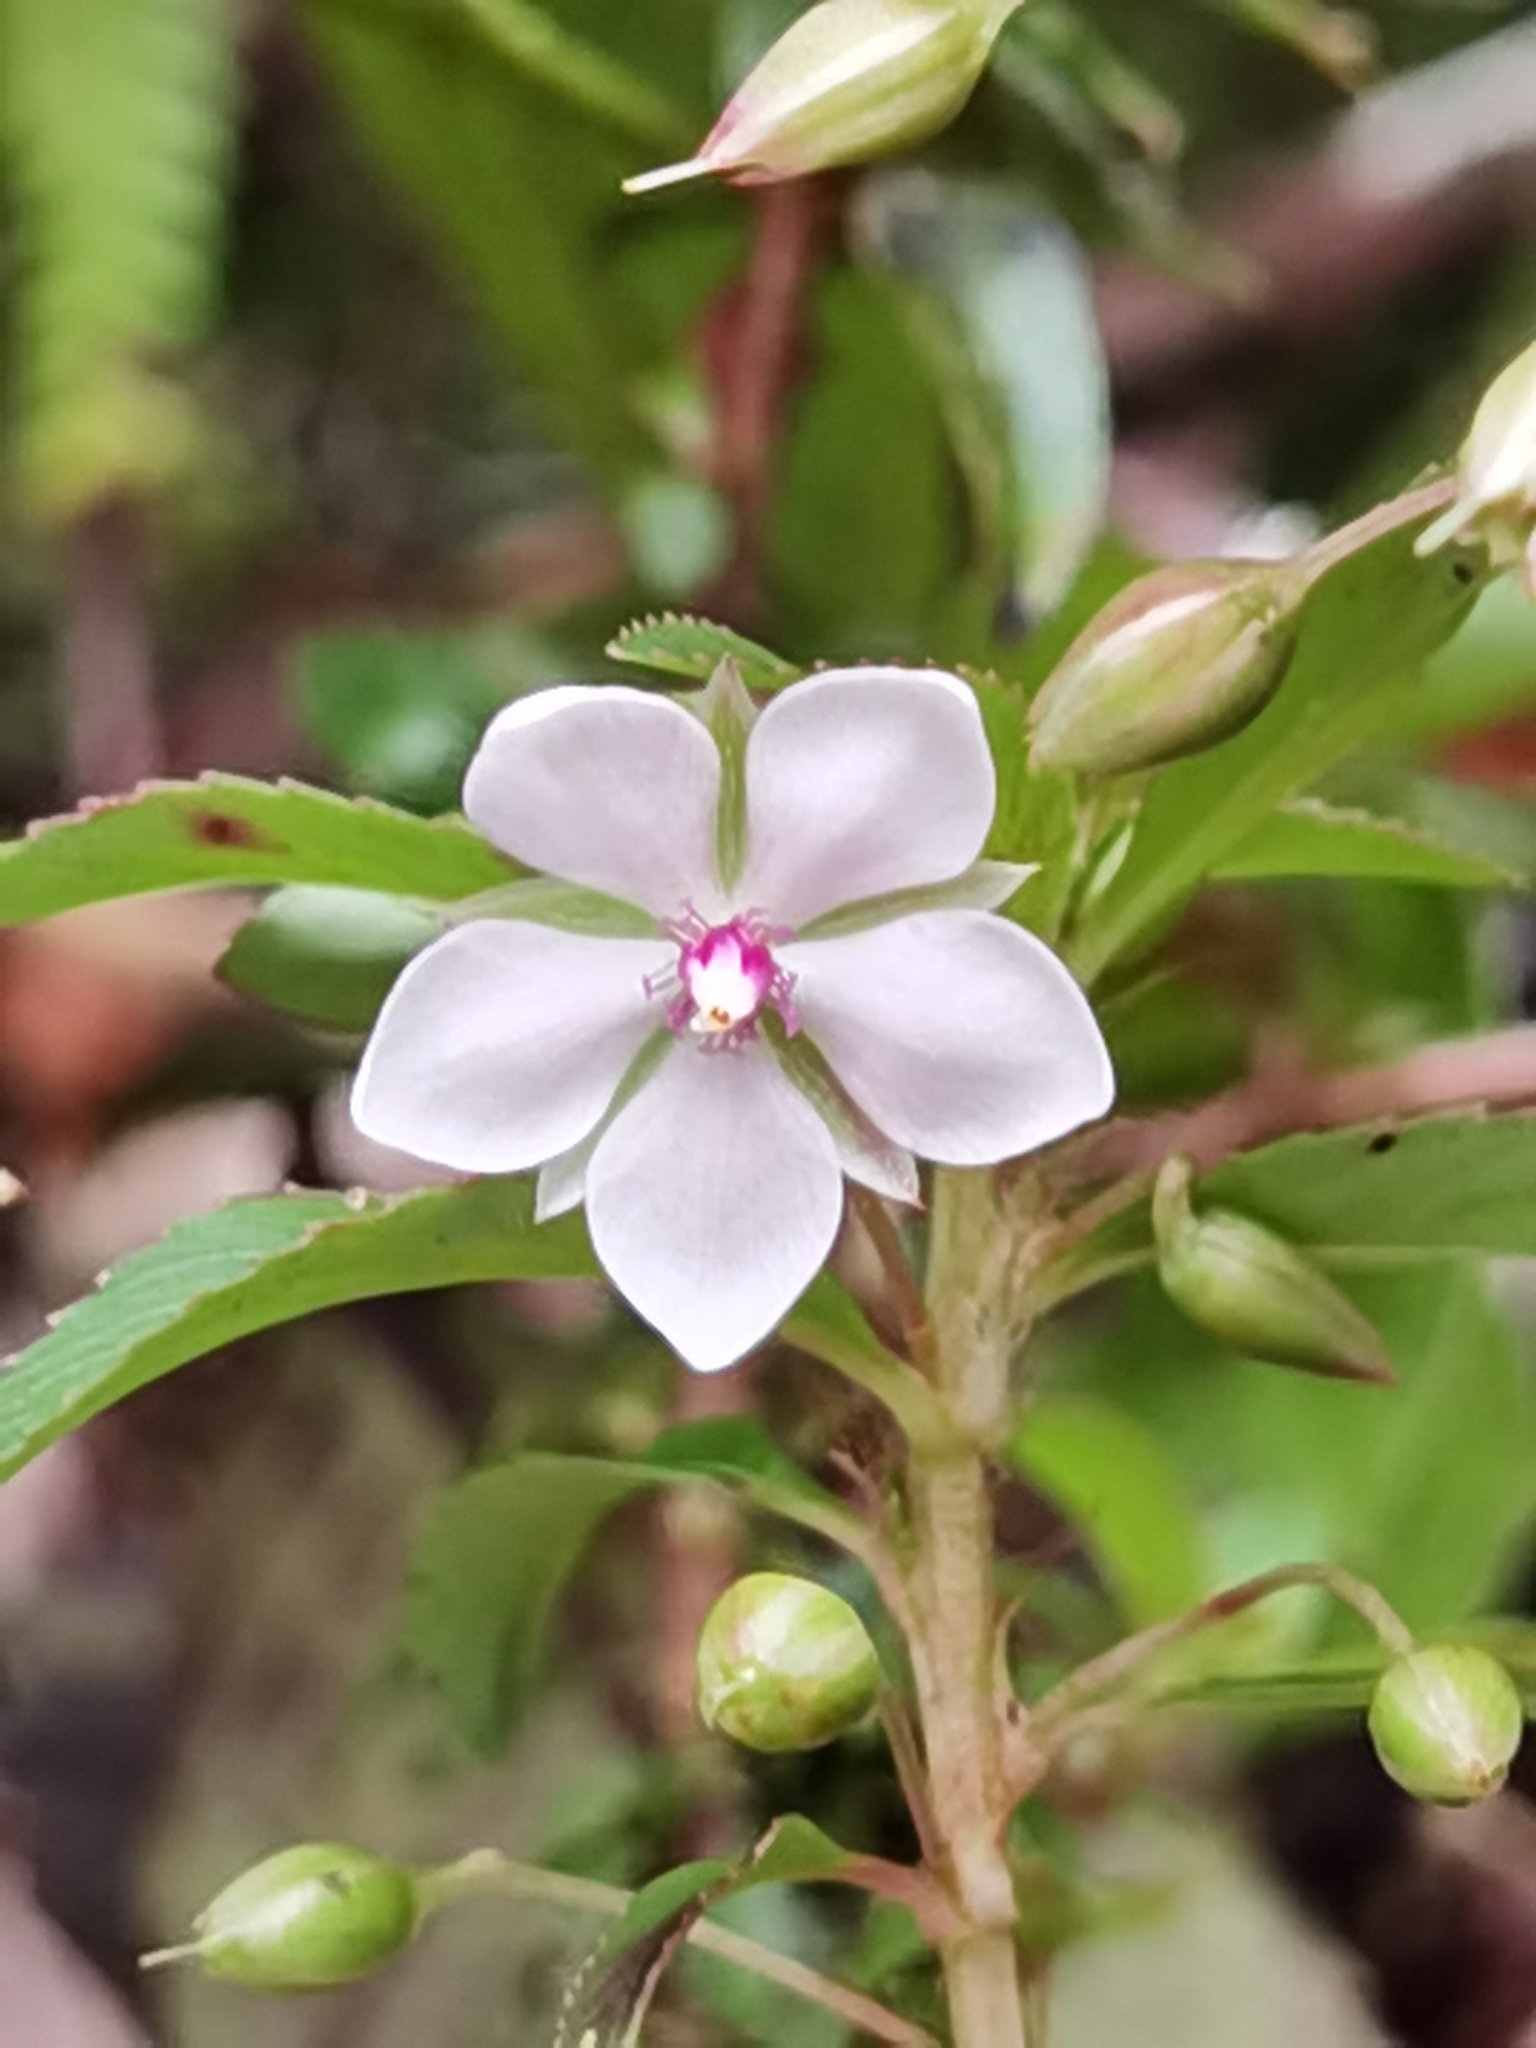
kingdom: Plantae
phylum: Tracheophyta
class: Magnoliopsida
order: Malpighiales
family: Ochnaceae
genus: Sauvagesia
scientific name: Sauvagesia erecta
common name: Creole tea
